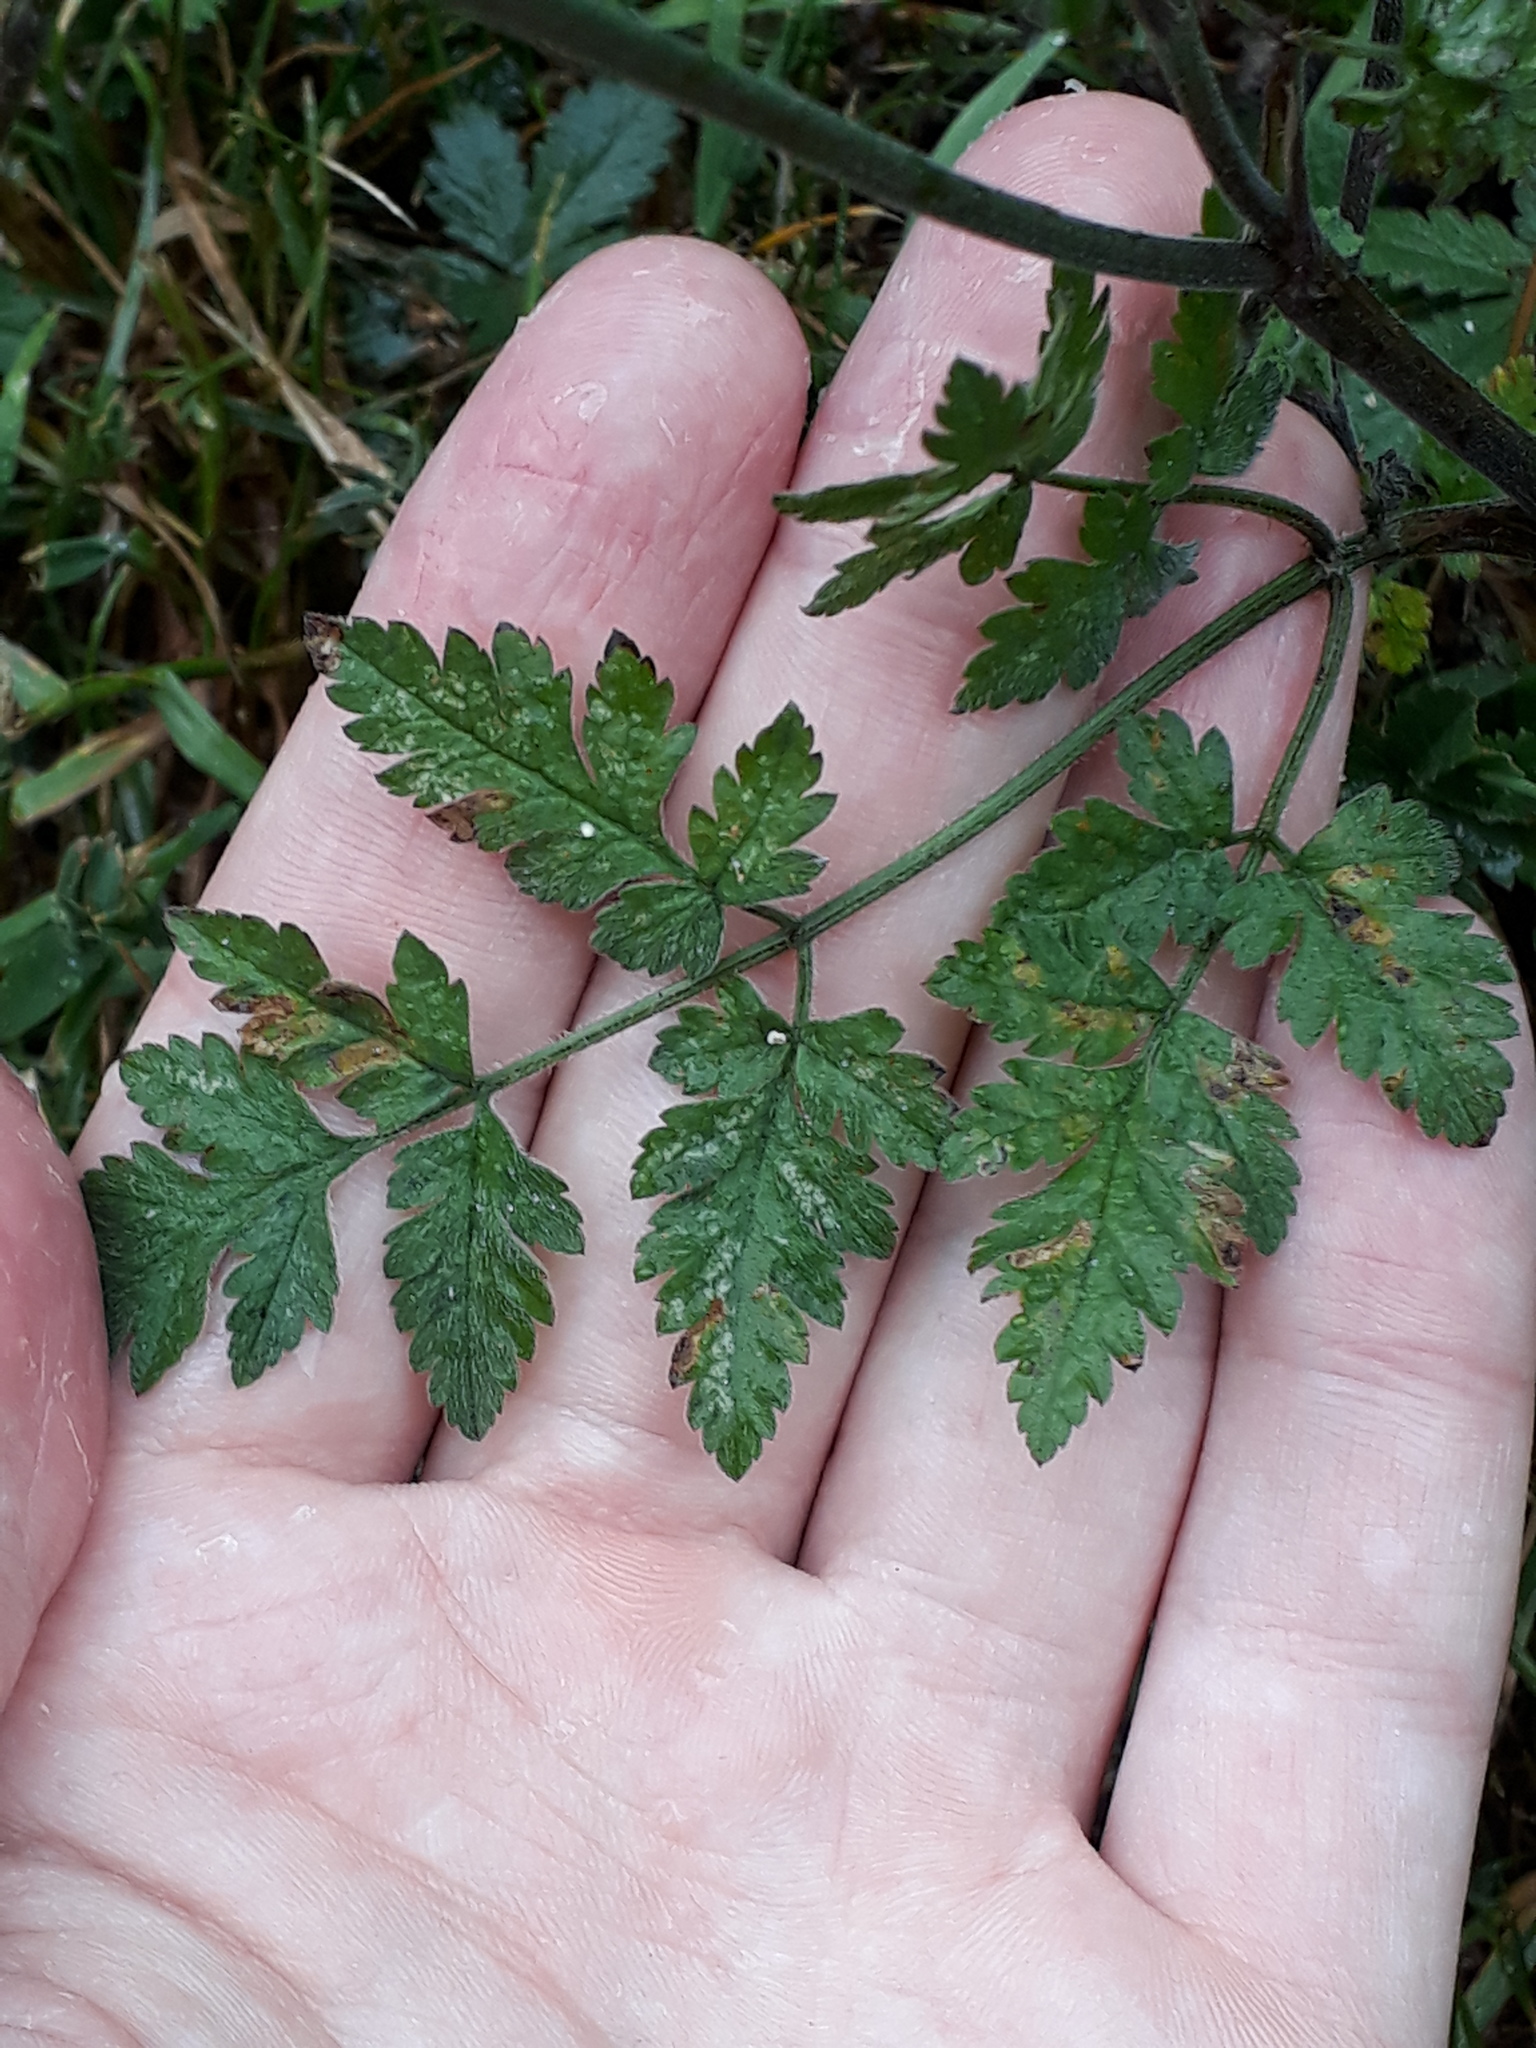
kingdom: Plantae
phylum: Tracheophyta
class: Magnoliopsida
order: Apiales
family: Apiaceae
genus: Chaerophyllum
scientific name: Chaerophyllum temulum
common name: Rough chervil
